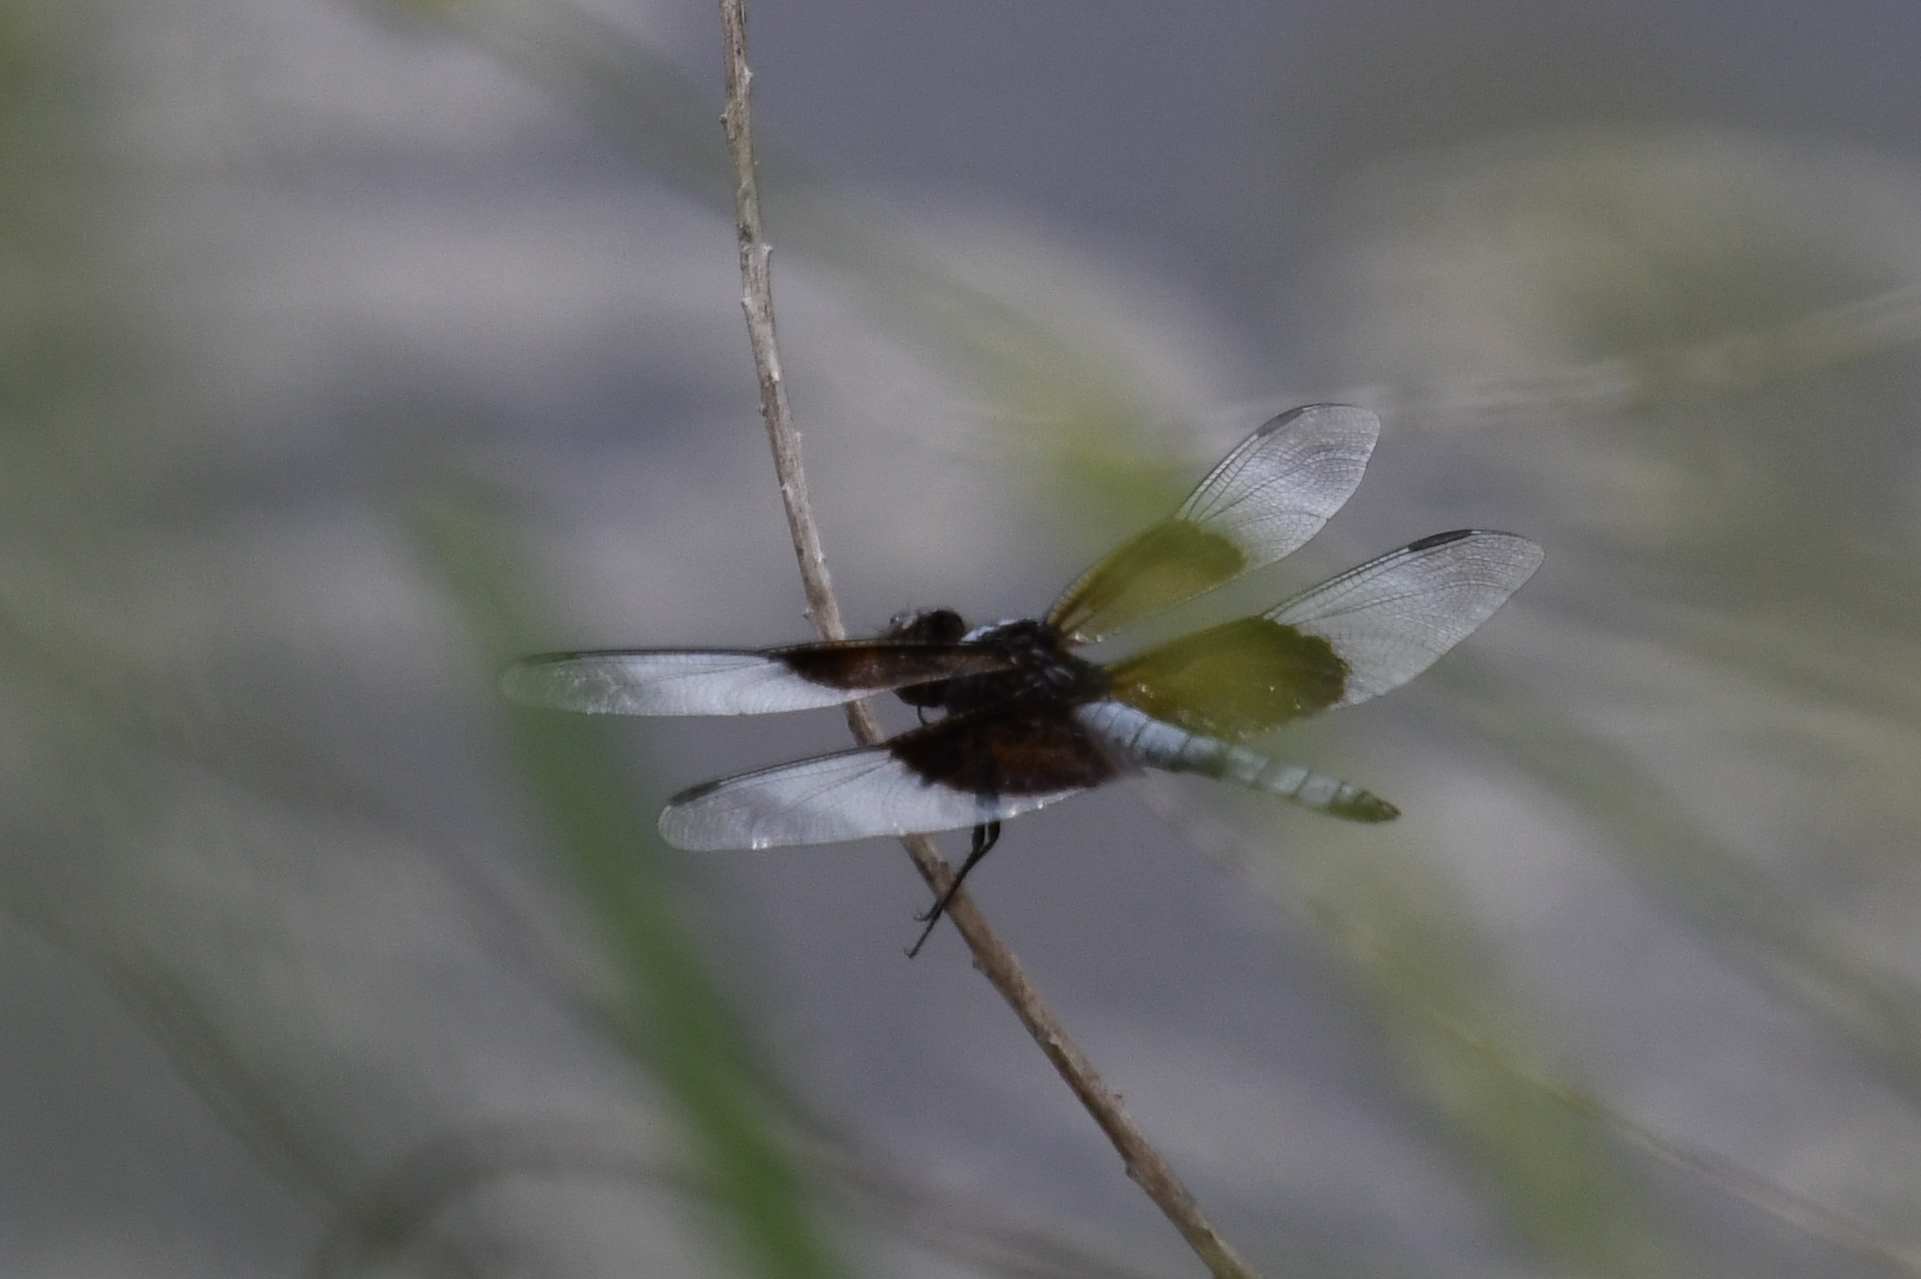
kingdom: Animalia
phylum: Arthropoda
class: Insecta
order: Odonata
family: Libellulidae
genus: Libellula
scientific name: Libellula luctuosa
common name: Widow skimmer
